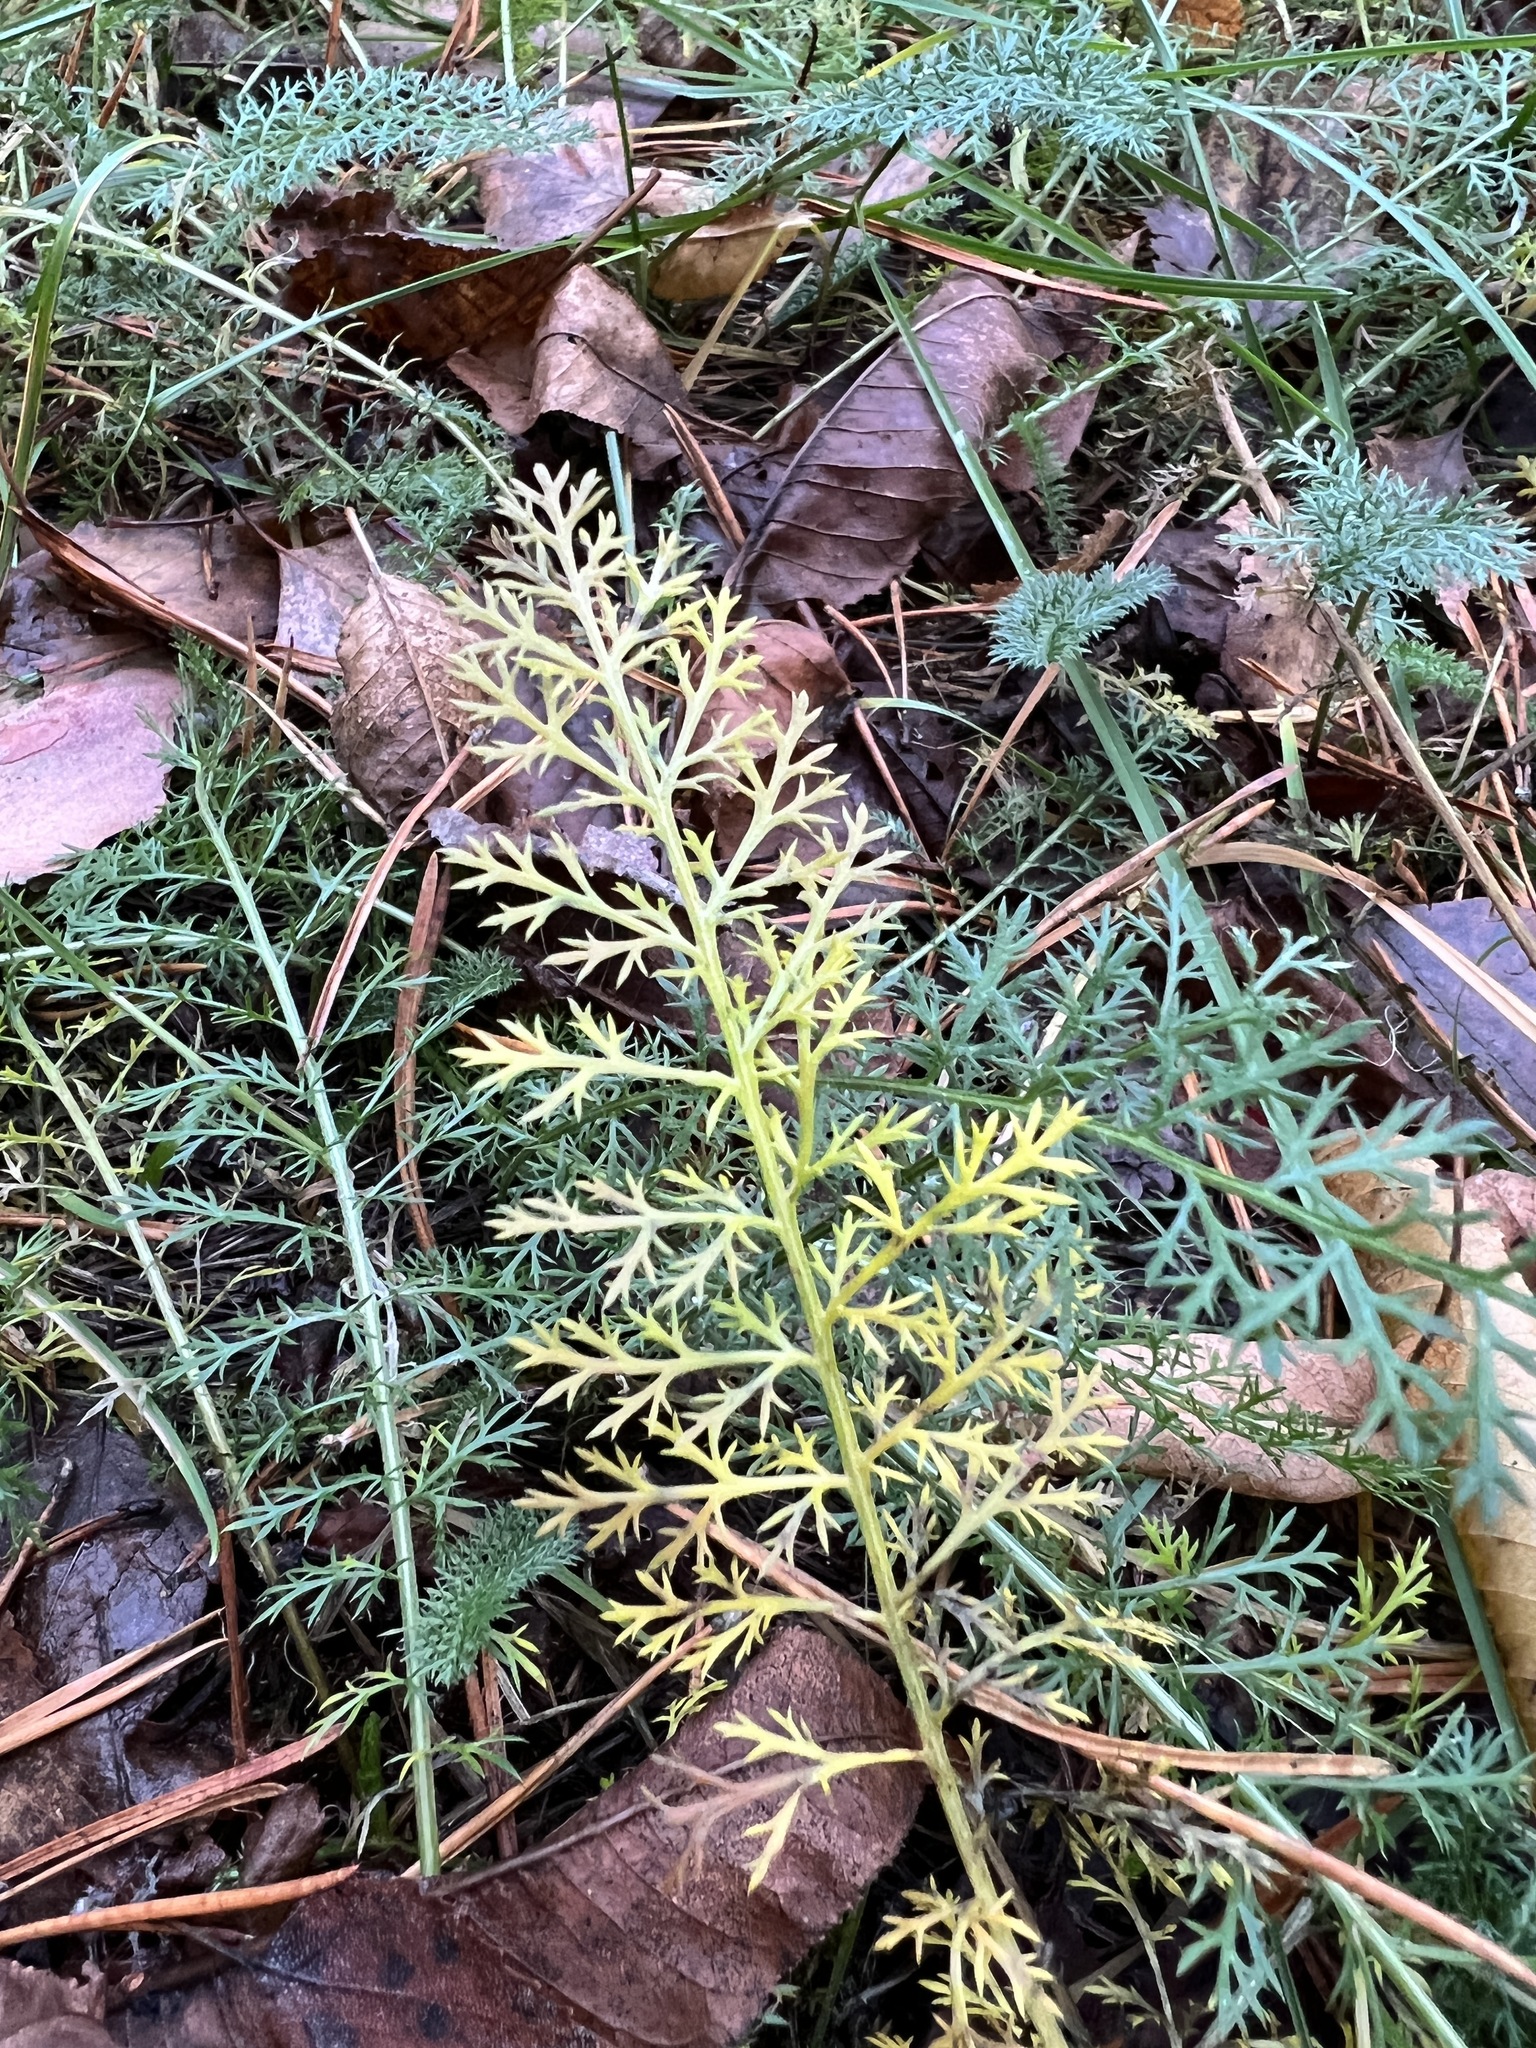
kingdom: Plantae
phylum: Tracheophyta
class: Magnoliopsida
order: Asterales
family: Asteraceae
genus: Achillea
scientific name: Achillea millefolium
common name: Yarrow
